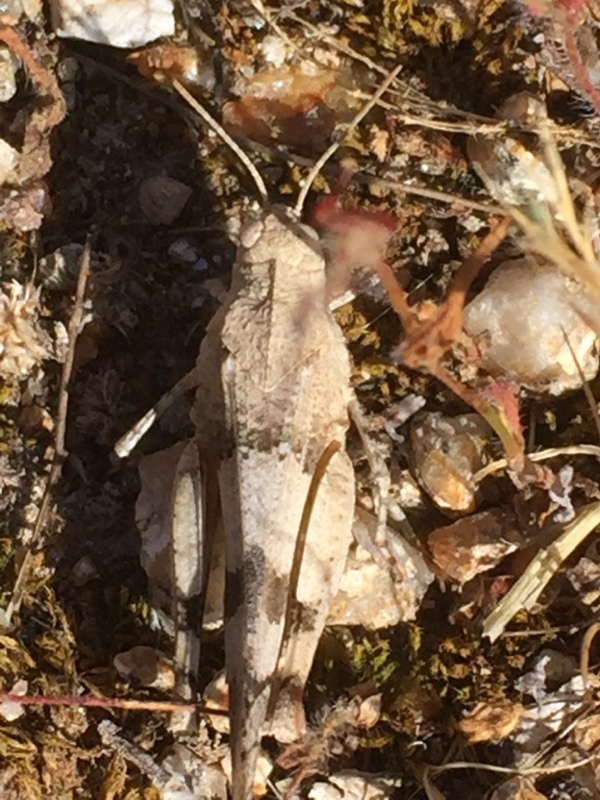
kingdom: Animalia
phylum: Arthropoda
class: Insecta
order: Orthoptera
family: Acrididae
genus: Oedipoda
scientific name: Oedipoda caerulescens
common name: Blue-winged grasshopper
